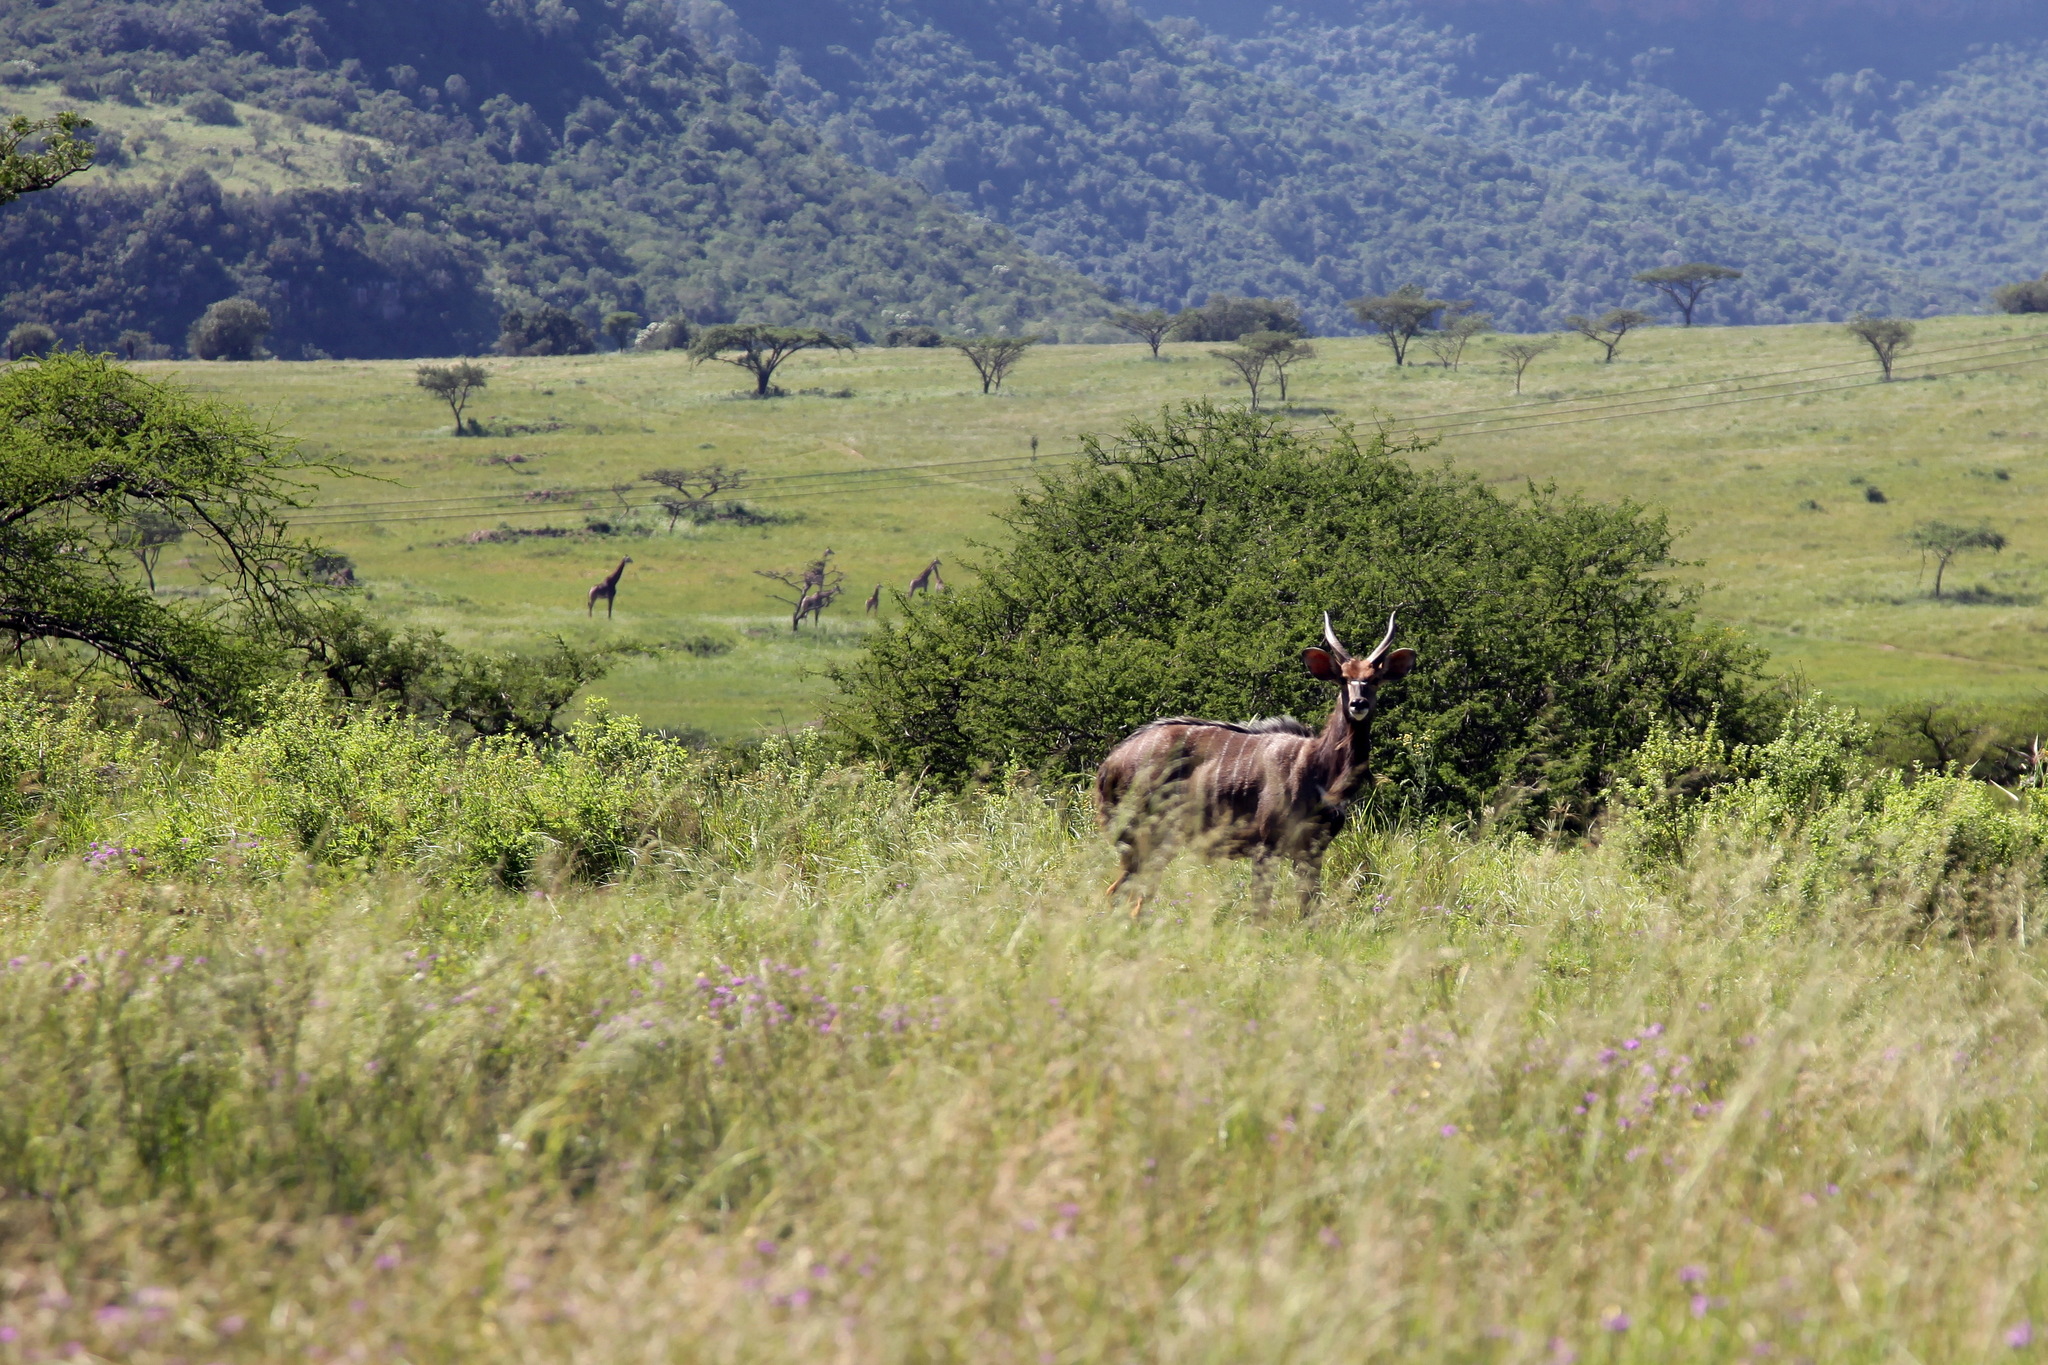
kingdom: Animalia
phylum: Chordata
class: Mammalia
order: Artiodactyla
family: Bovidae
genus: Tragelaphus
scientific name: Tragelaphus angasii
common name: Nyala
